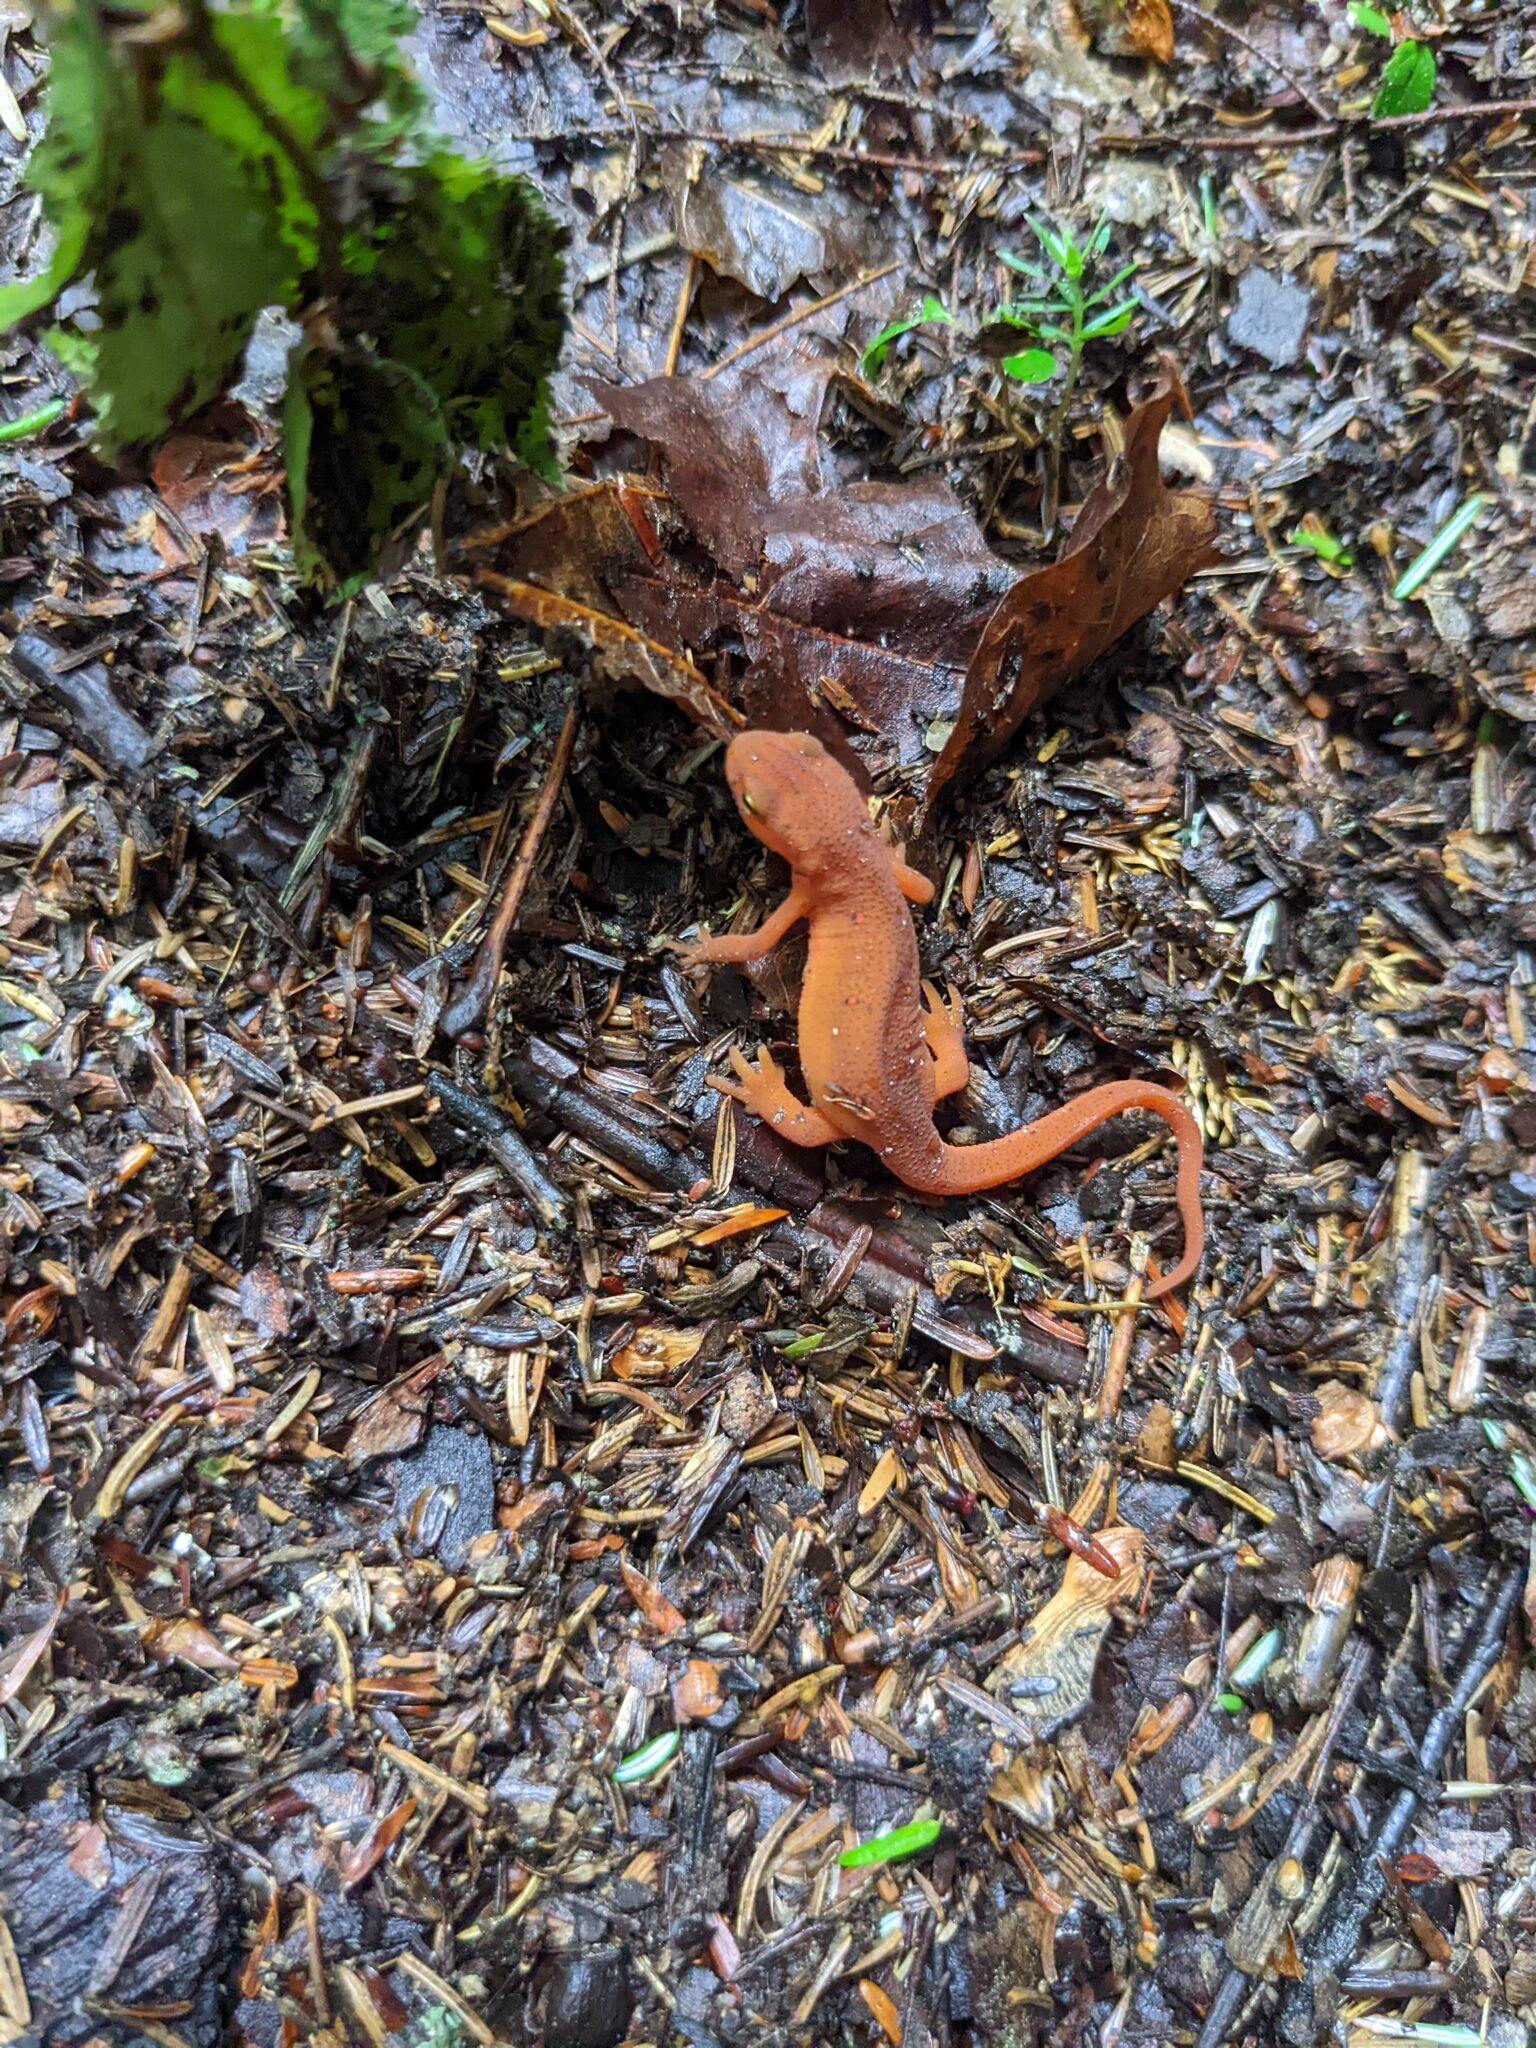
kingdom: Animalia
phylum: Chordata
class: Amphibia
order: Caudata
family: Salamandridae
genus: Notophthalmus
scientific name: Notophthalmus viridescens
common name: Eastern newt
